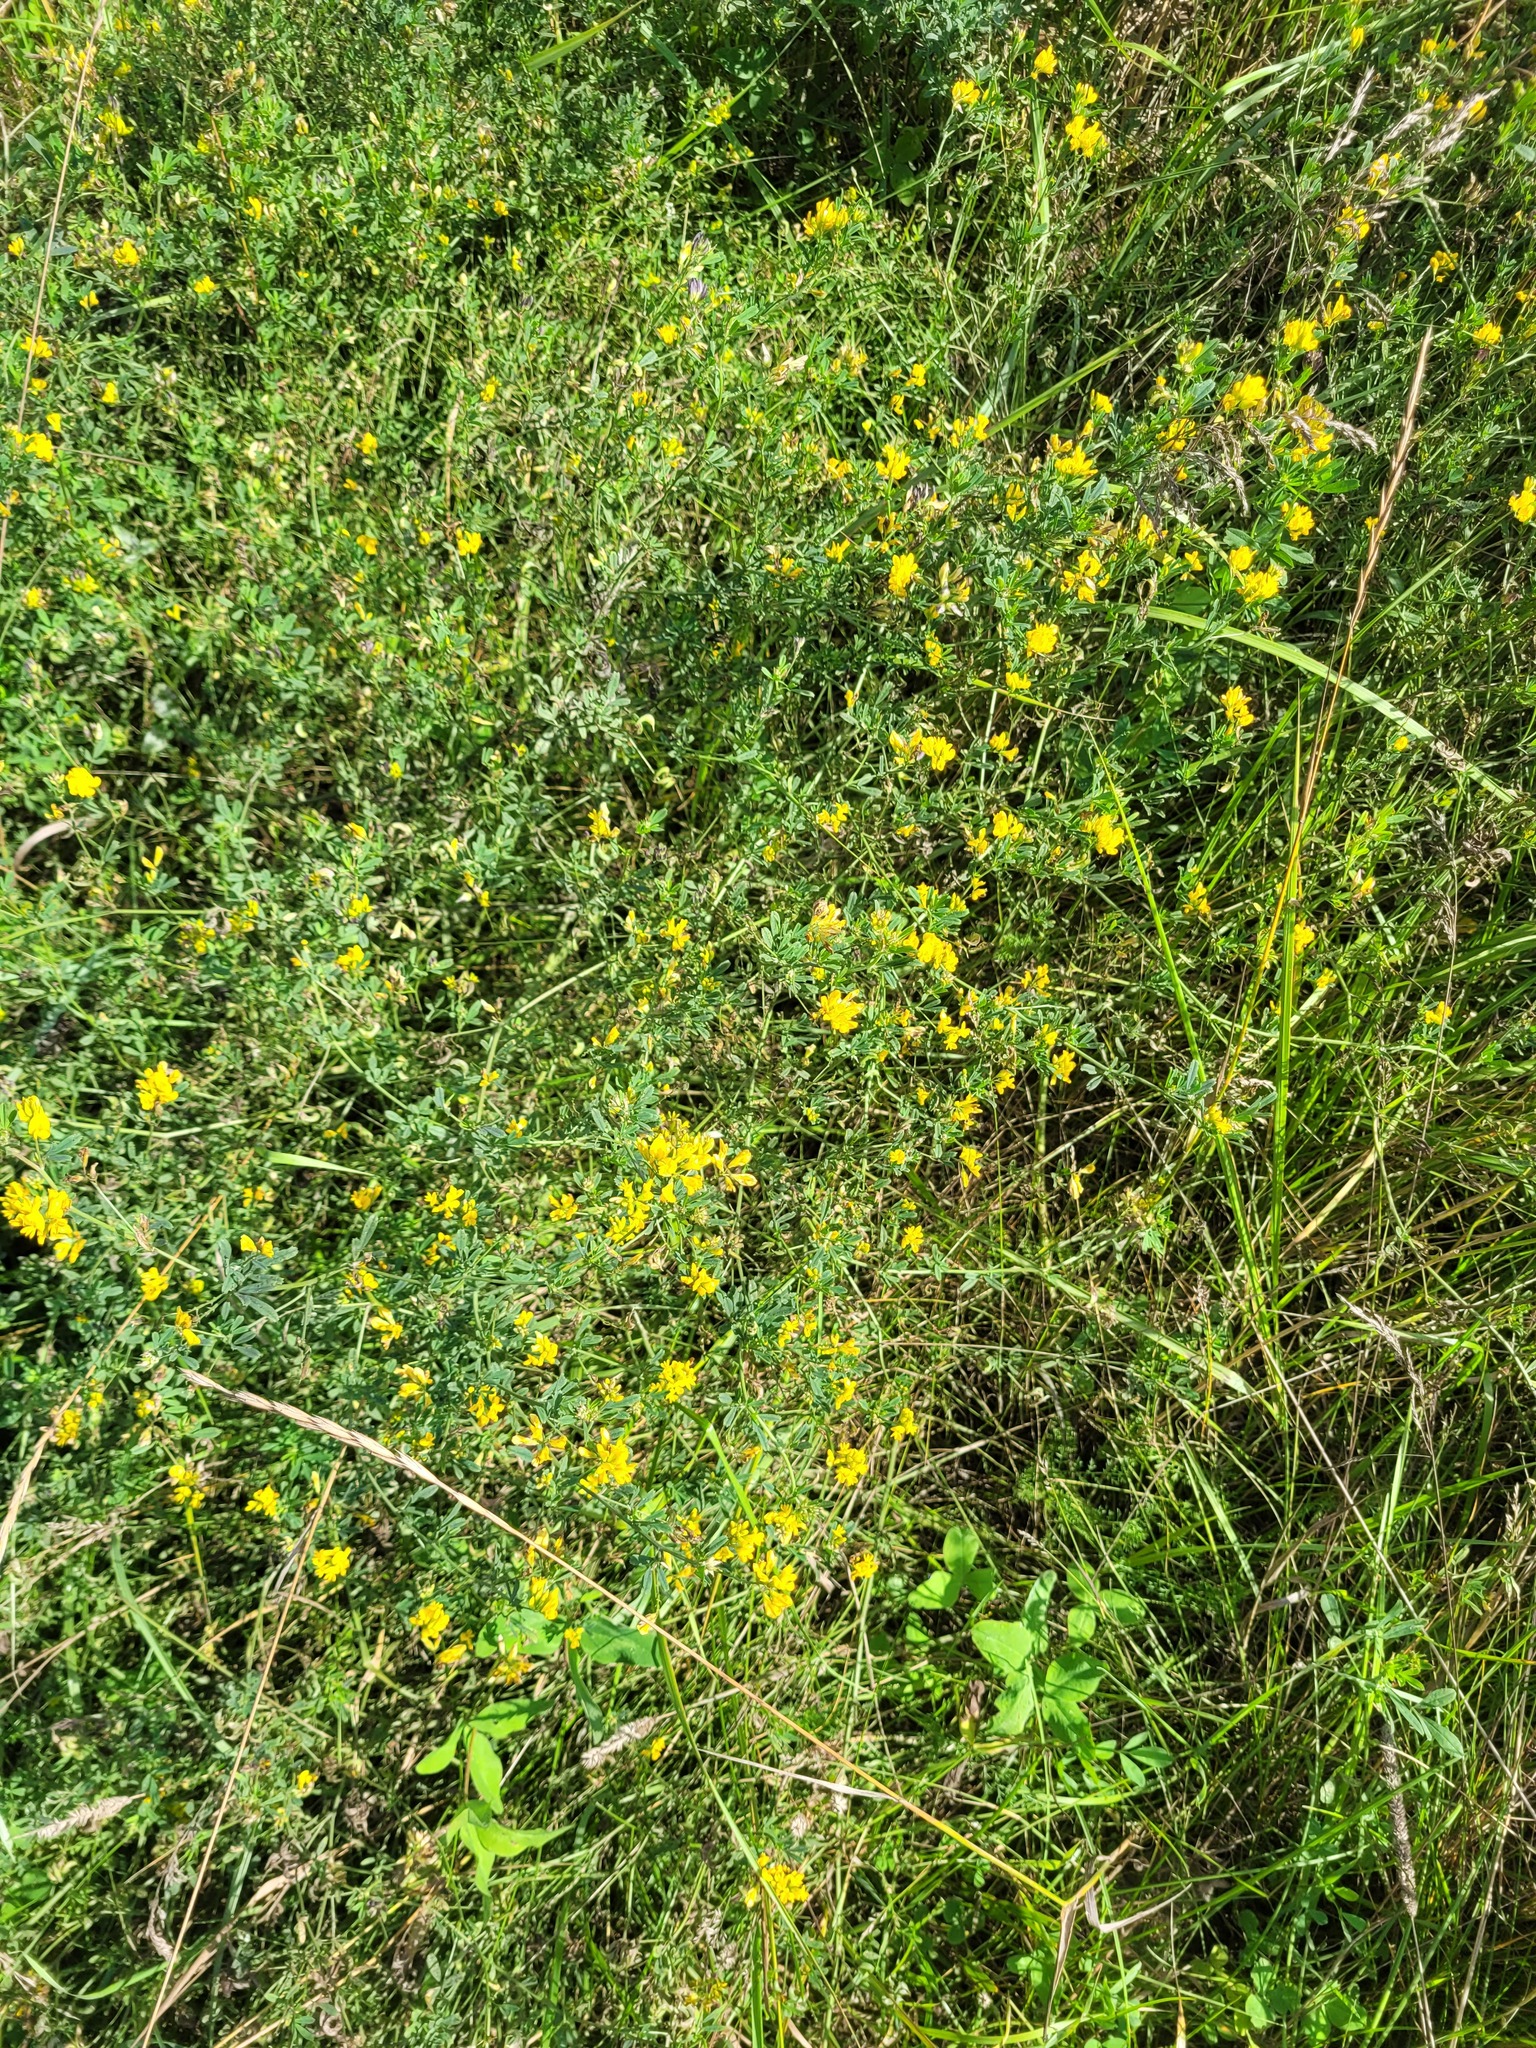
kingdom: Plantae
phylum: Tracheophyta
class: Magnoliopsida
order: Fabales
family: Fabaceae
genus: Medicago
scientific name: Medicago varia
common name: Sand lucerne
